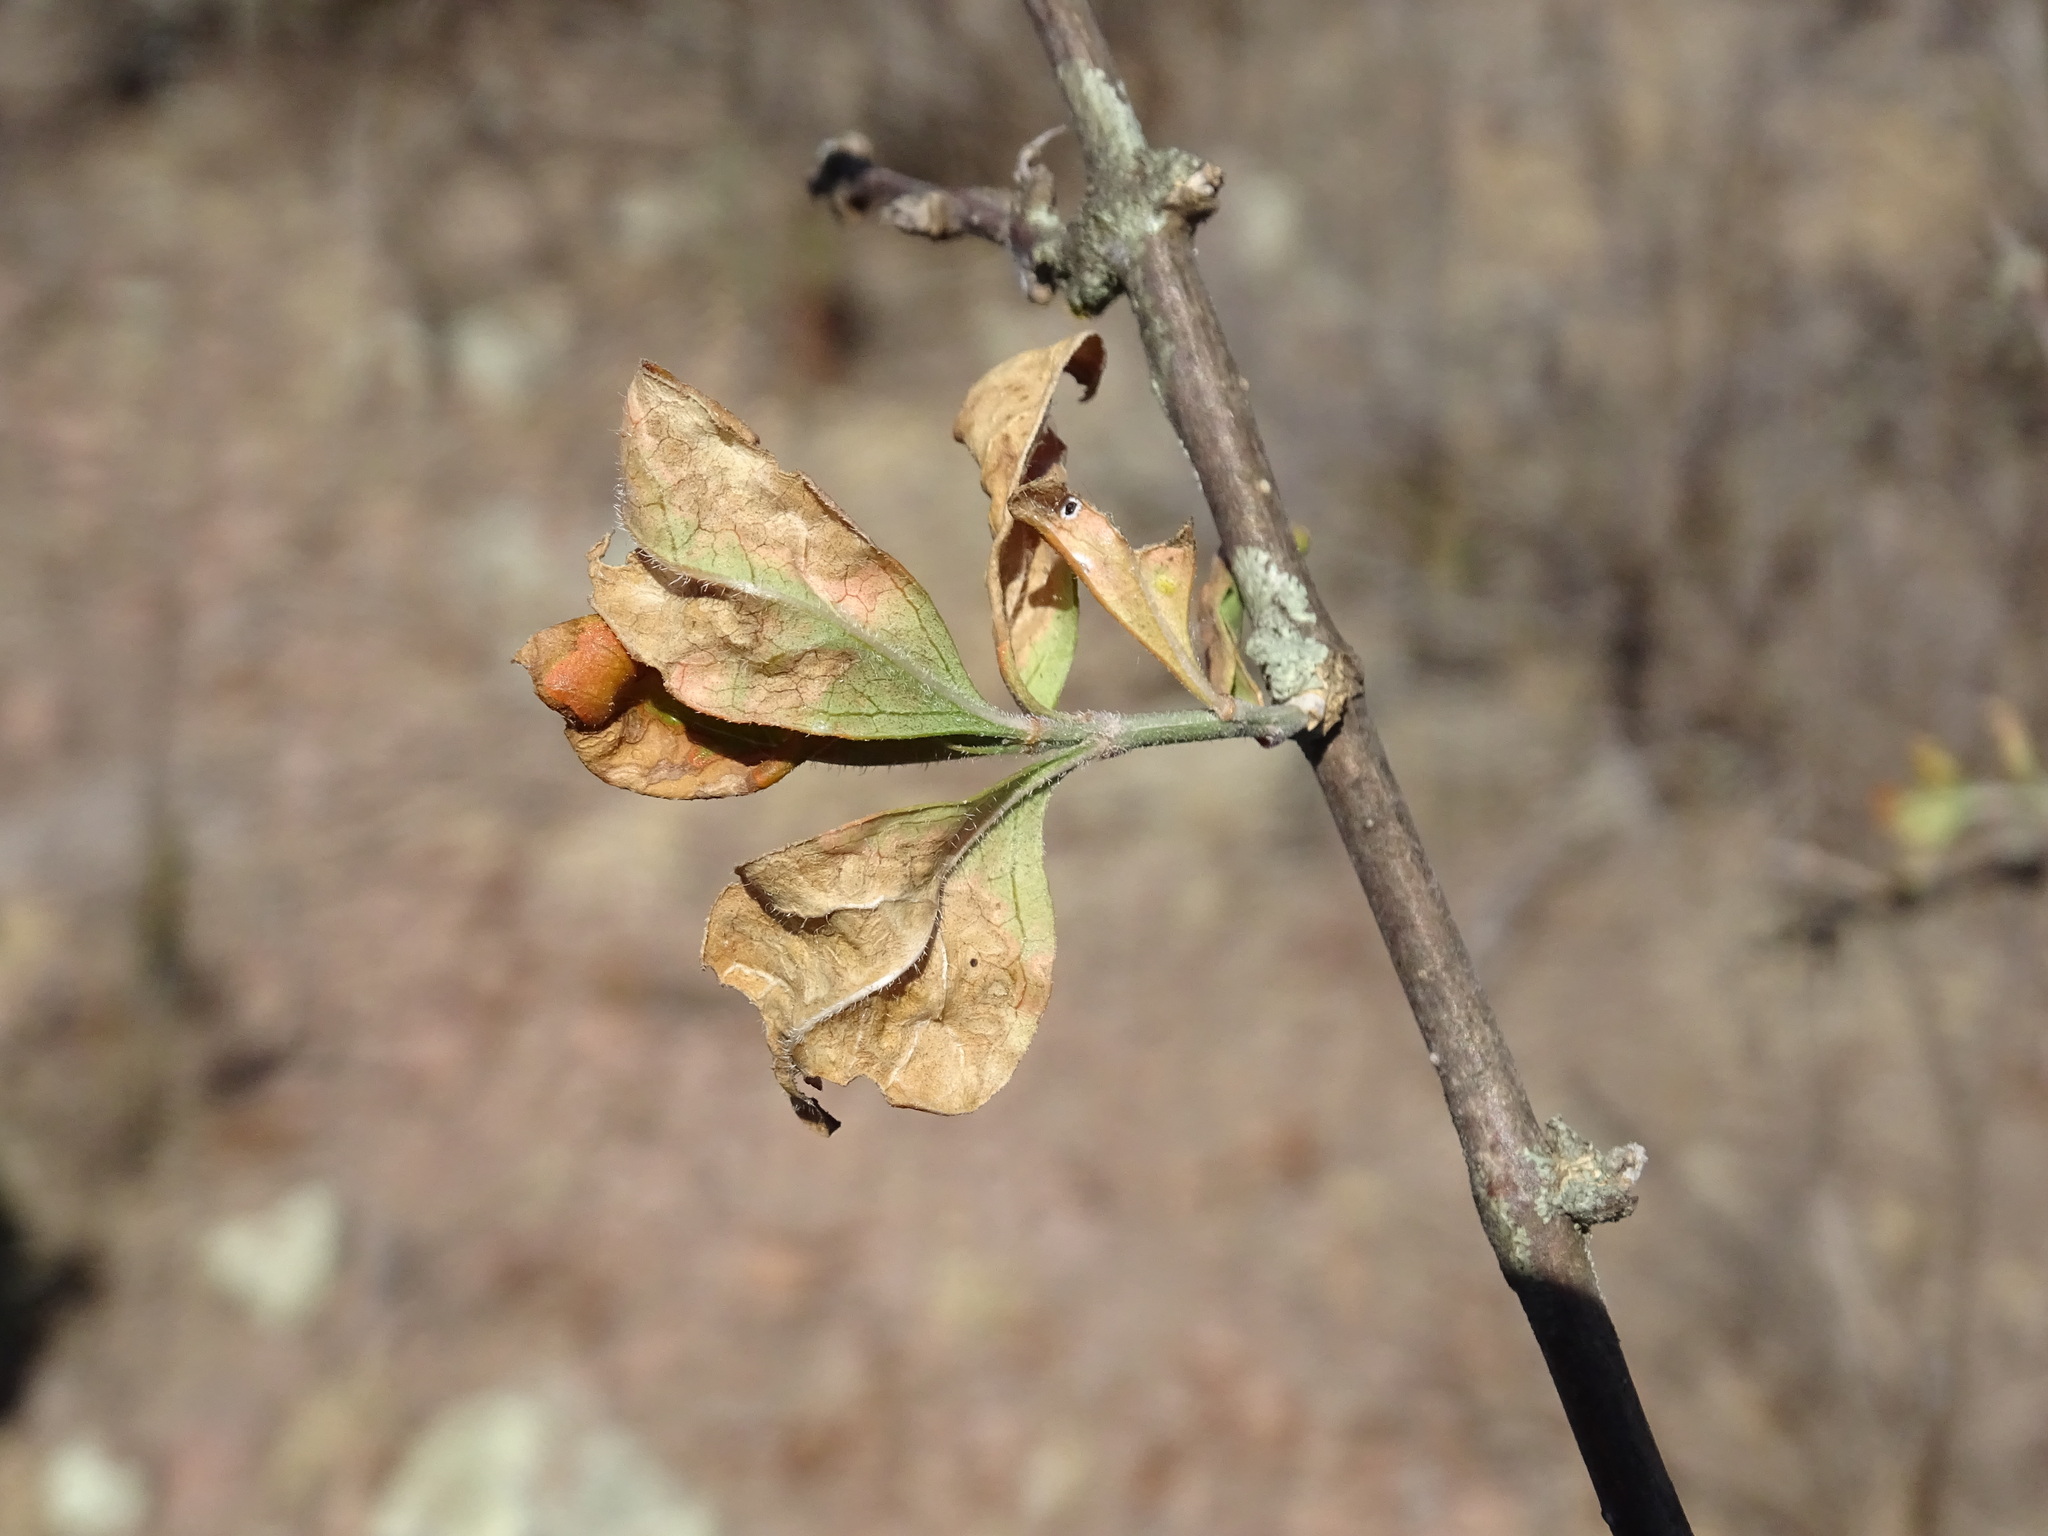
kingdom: Plantae
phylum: Tracheophyta
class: Magnoliopsida
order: Lamiales
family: Verbenaceae
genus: Citharexylum
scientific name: Citharexylum racemosum
